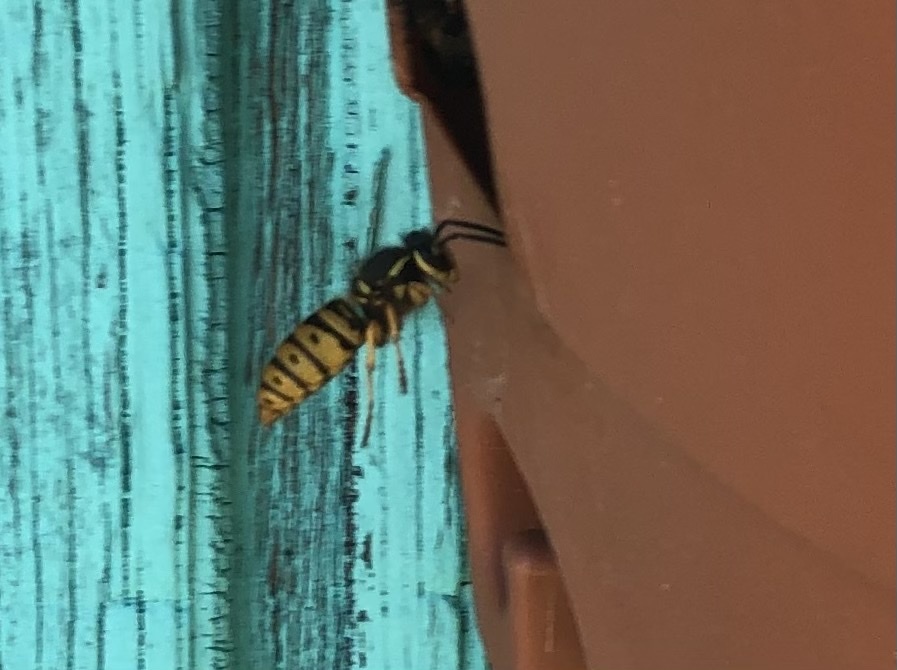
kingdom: Animalia
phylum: Arthropoda
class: Insecta
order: Hymenoptera
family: Vespidae
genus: Vespula
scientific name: Vespula maculifrons
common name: Eastern yellowjacket
